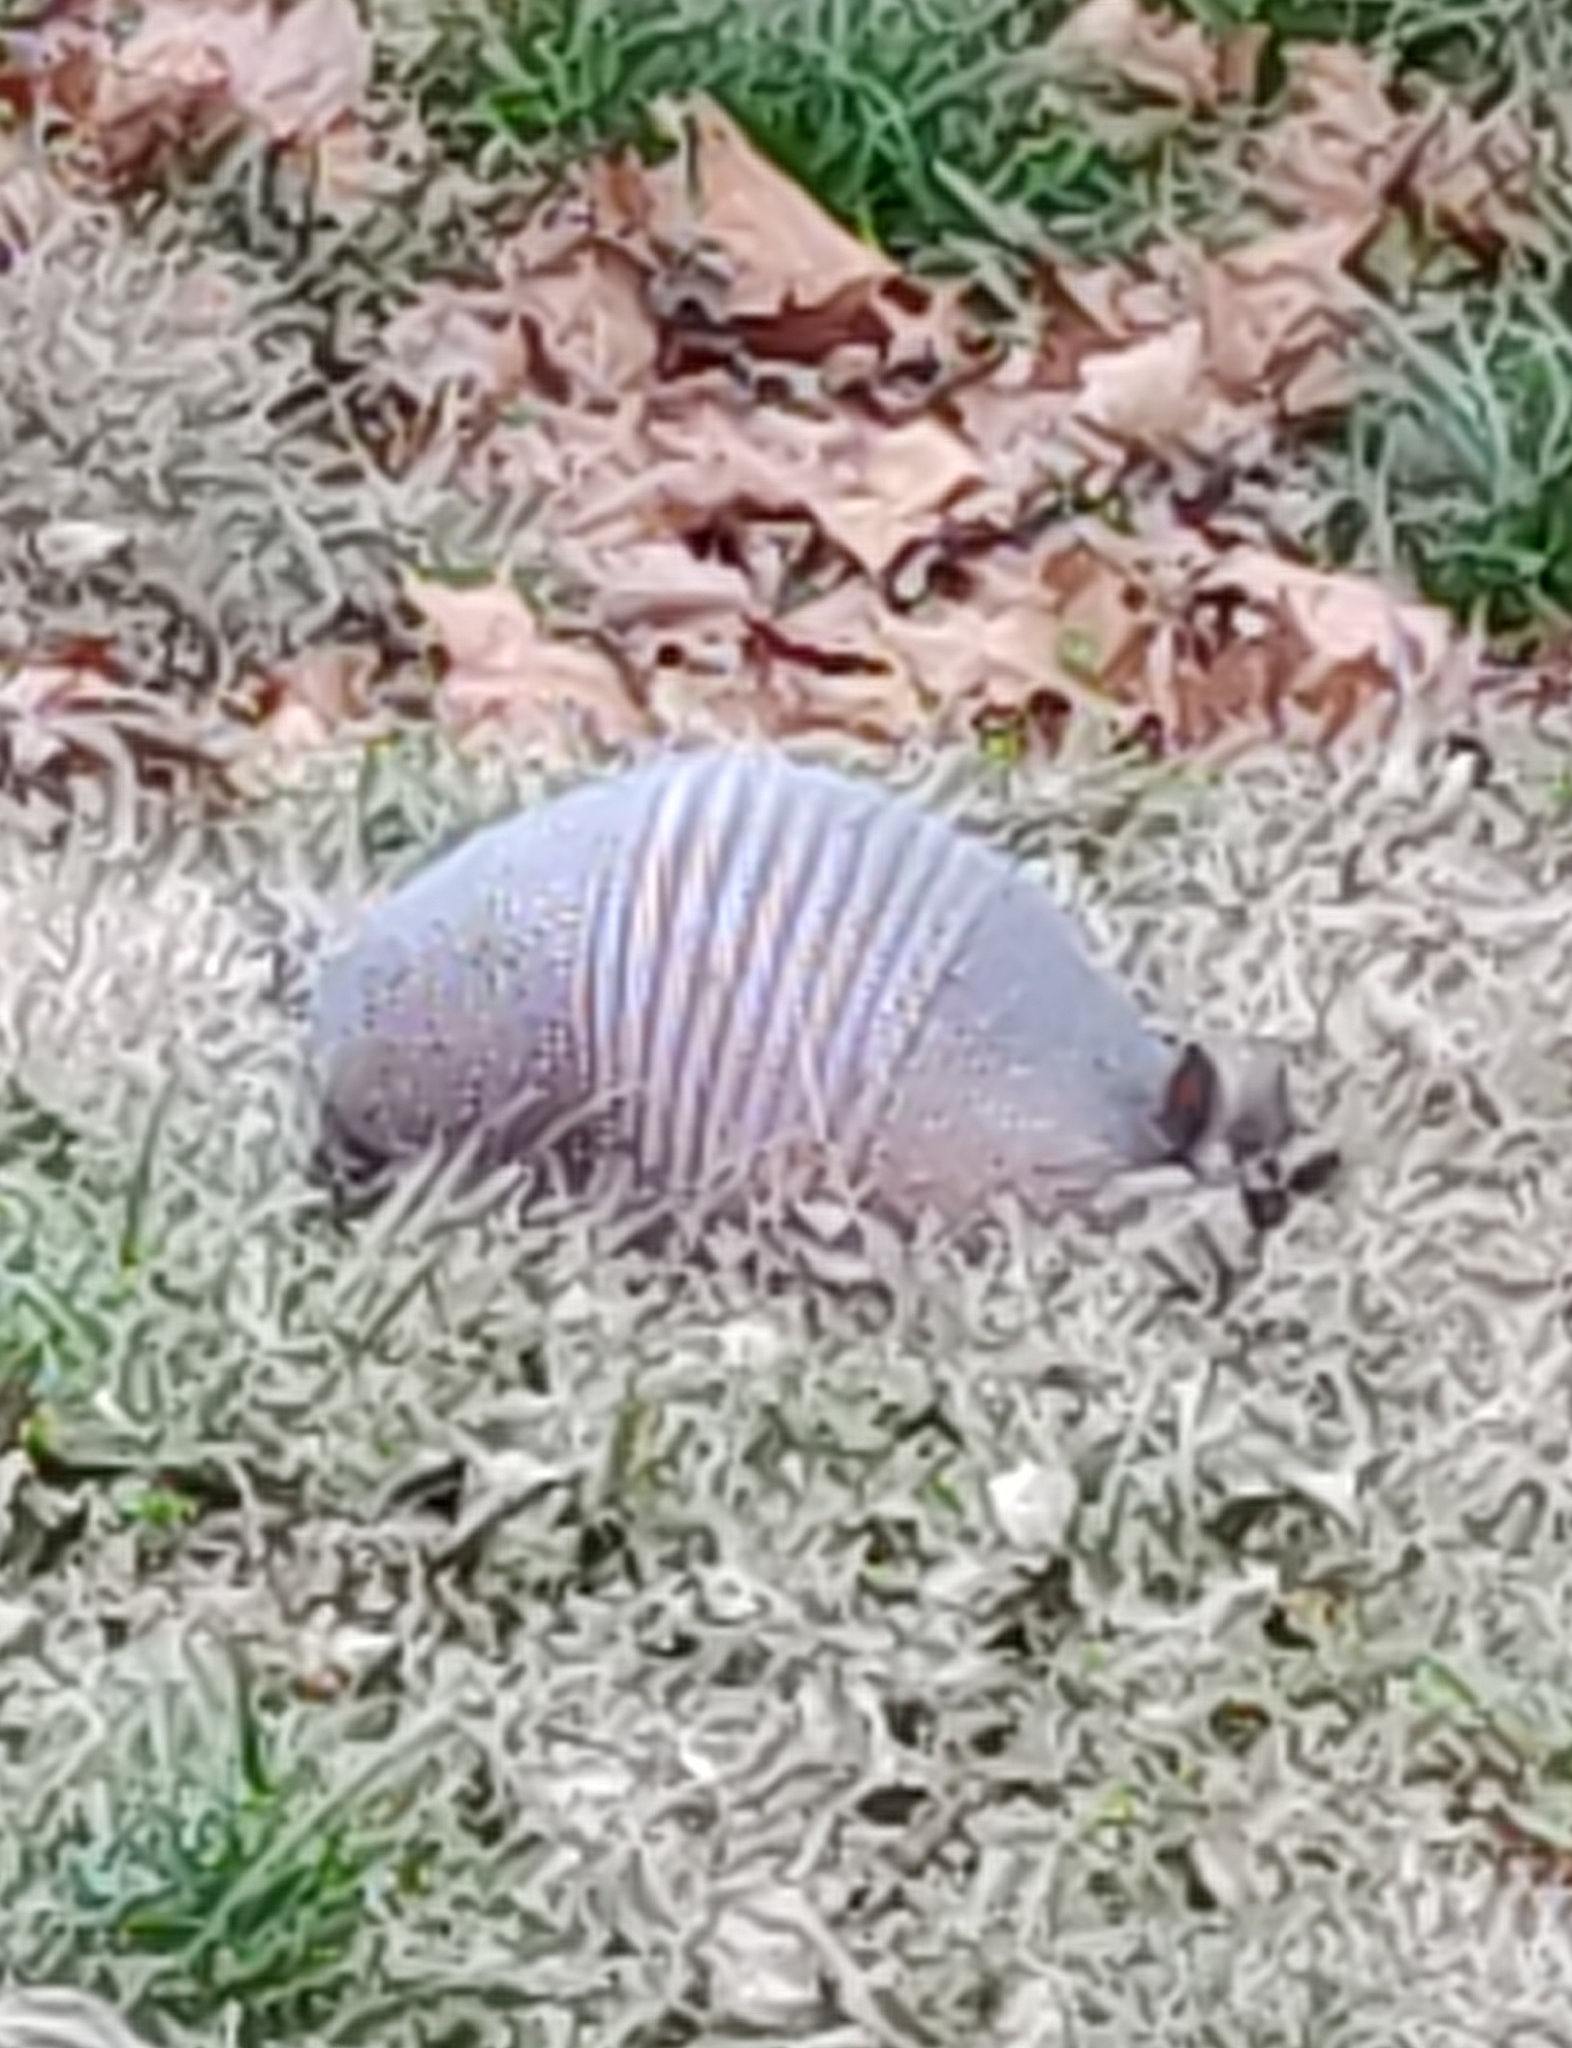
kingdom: Animalia
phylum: Chordata
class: Mammalia
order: Cingulata
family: Dasypodidae
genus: Dasypus
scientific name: Dasypus novemcinctus
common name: Nine-banded armadillo
